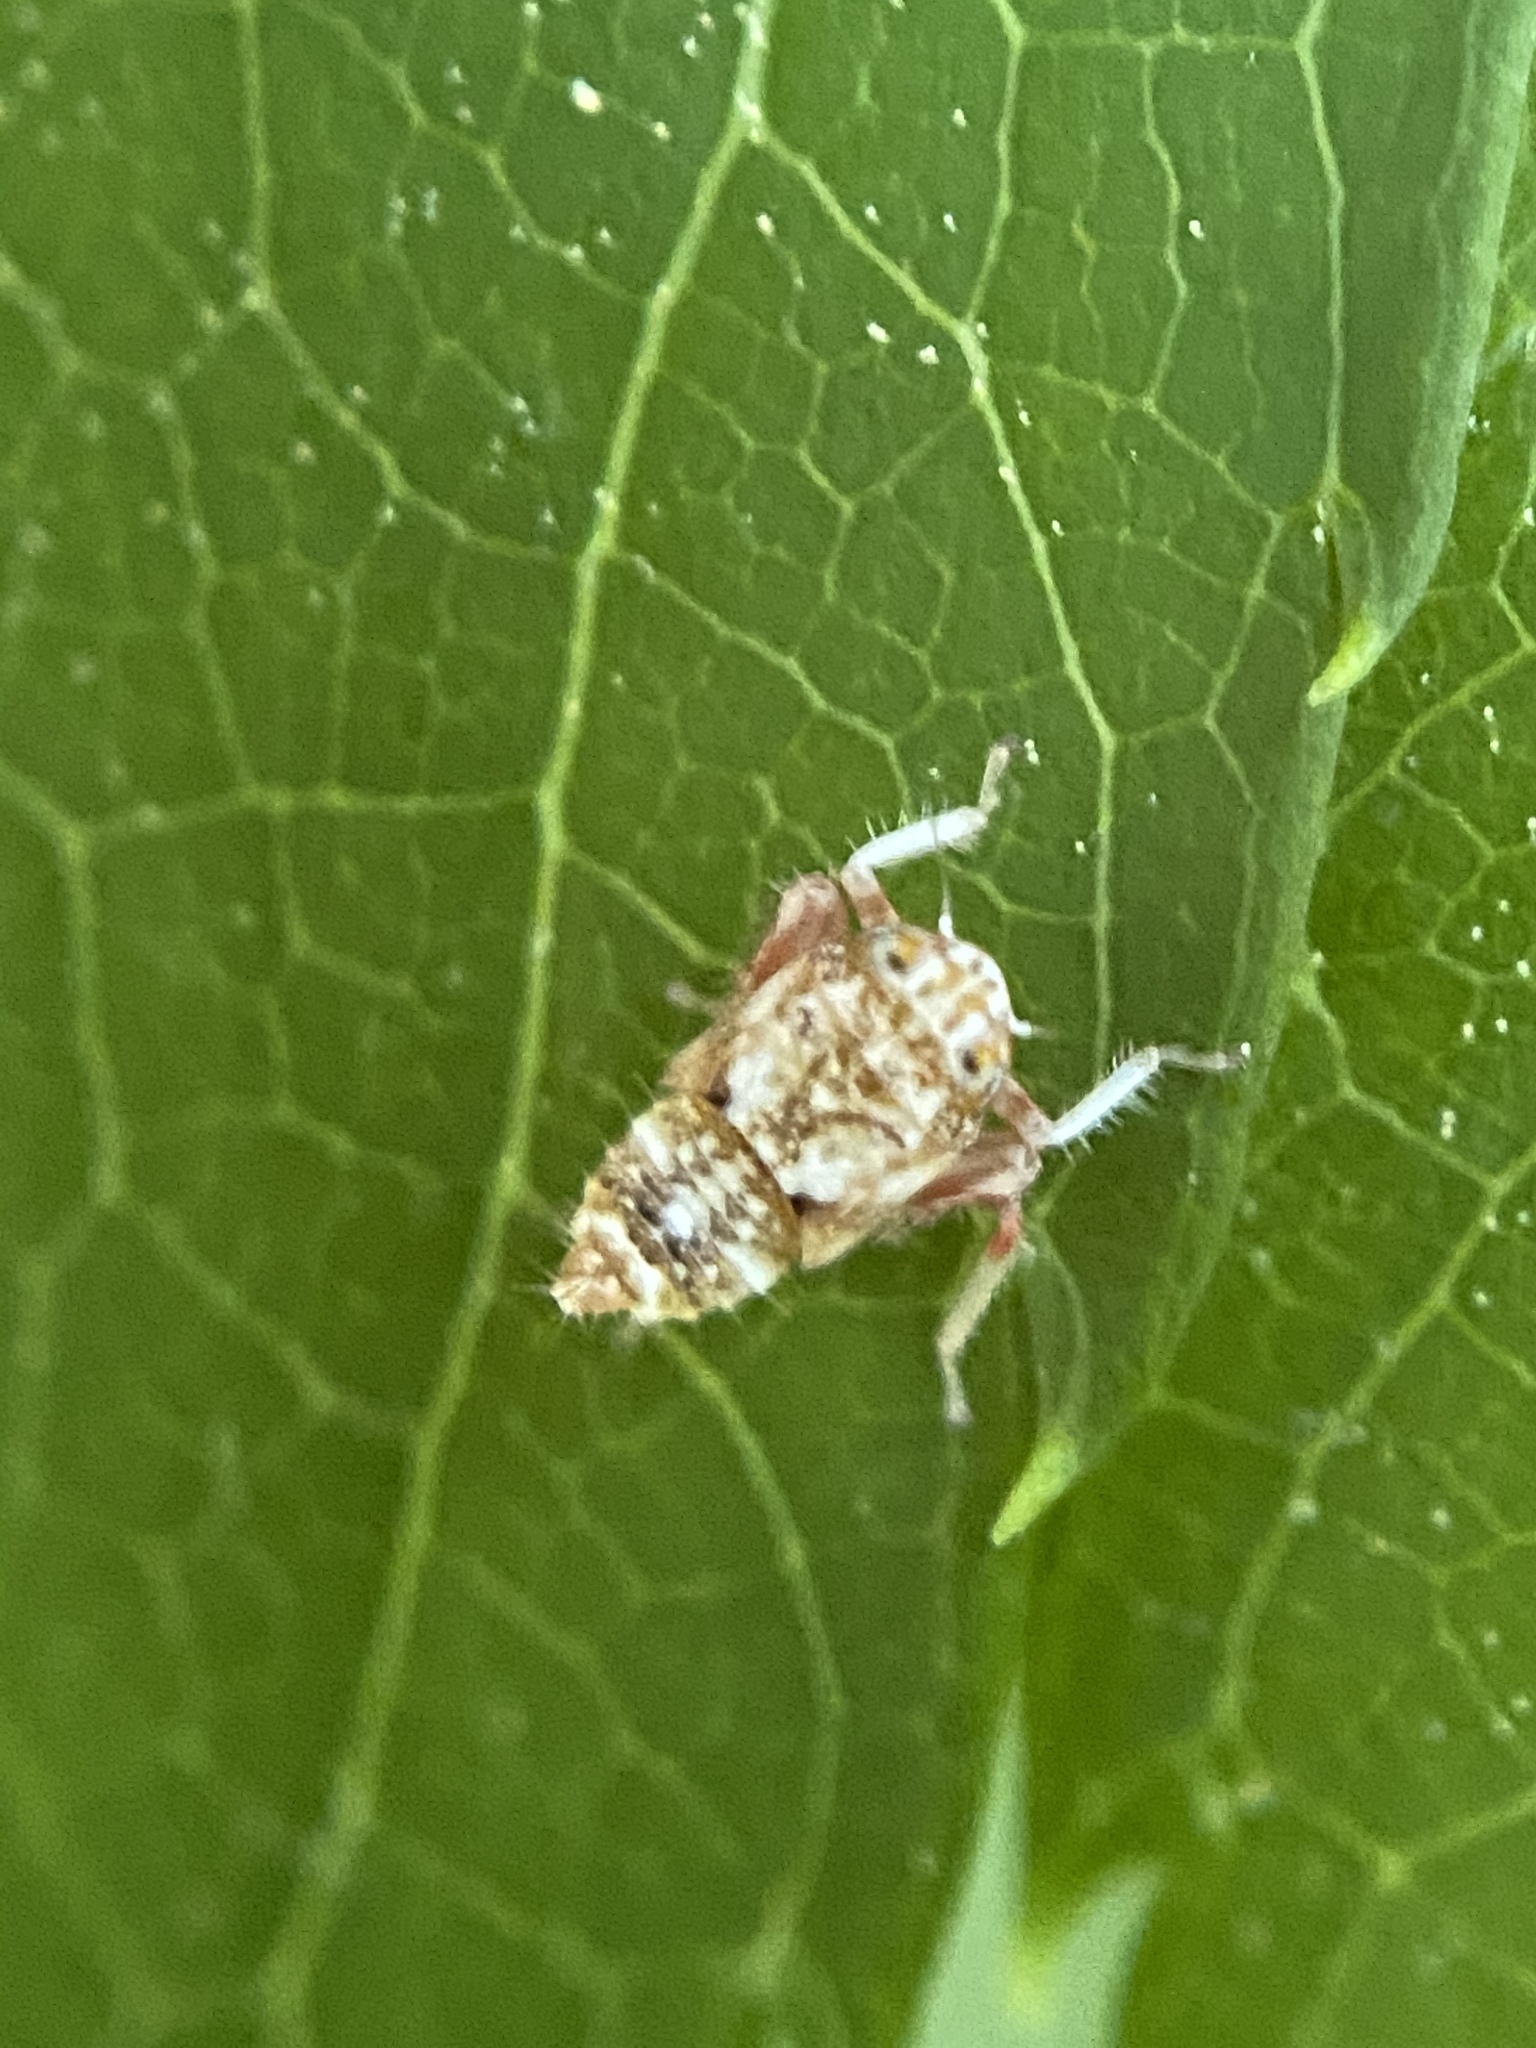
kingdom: Animalia
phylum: Arthropoda
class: Insecta
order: Hemiptera
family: Cicadellidae
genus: Orientus
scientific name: Orientus ishidae
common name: Japanese leafhopper
